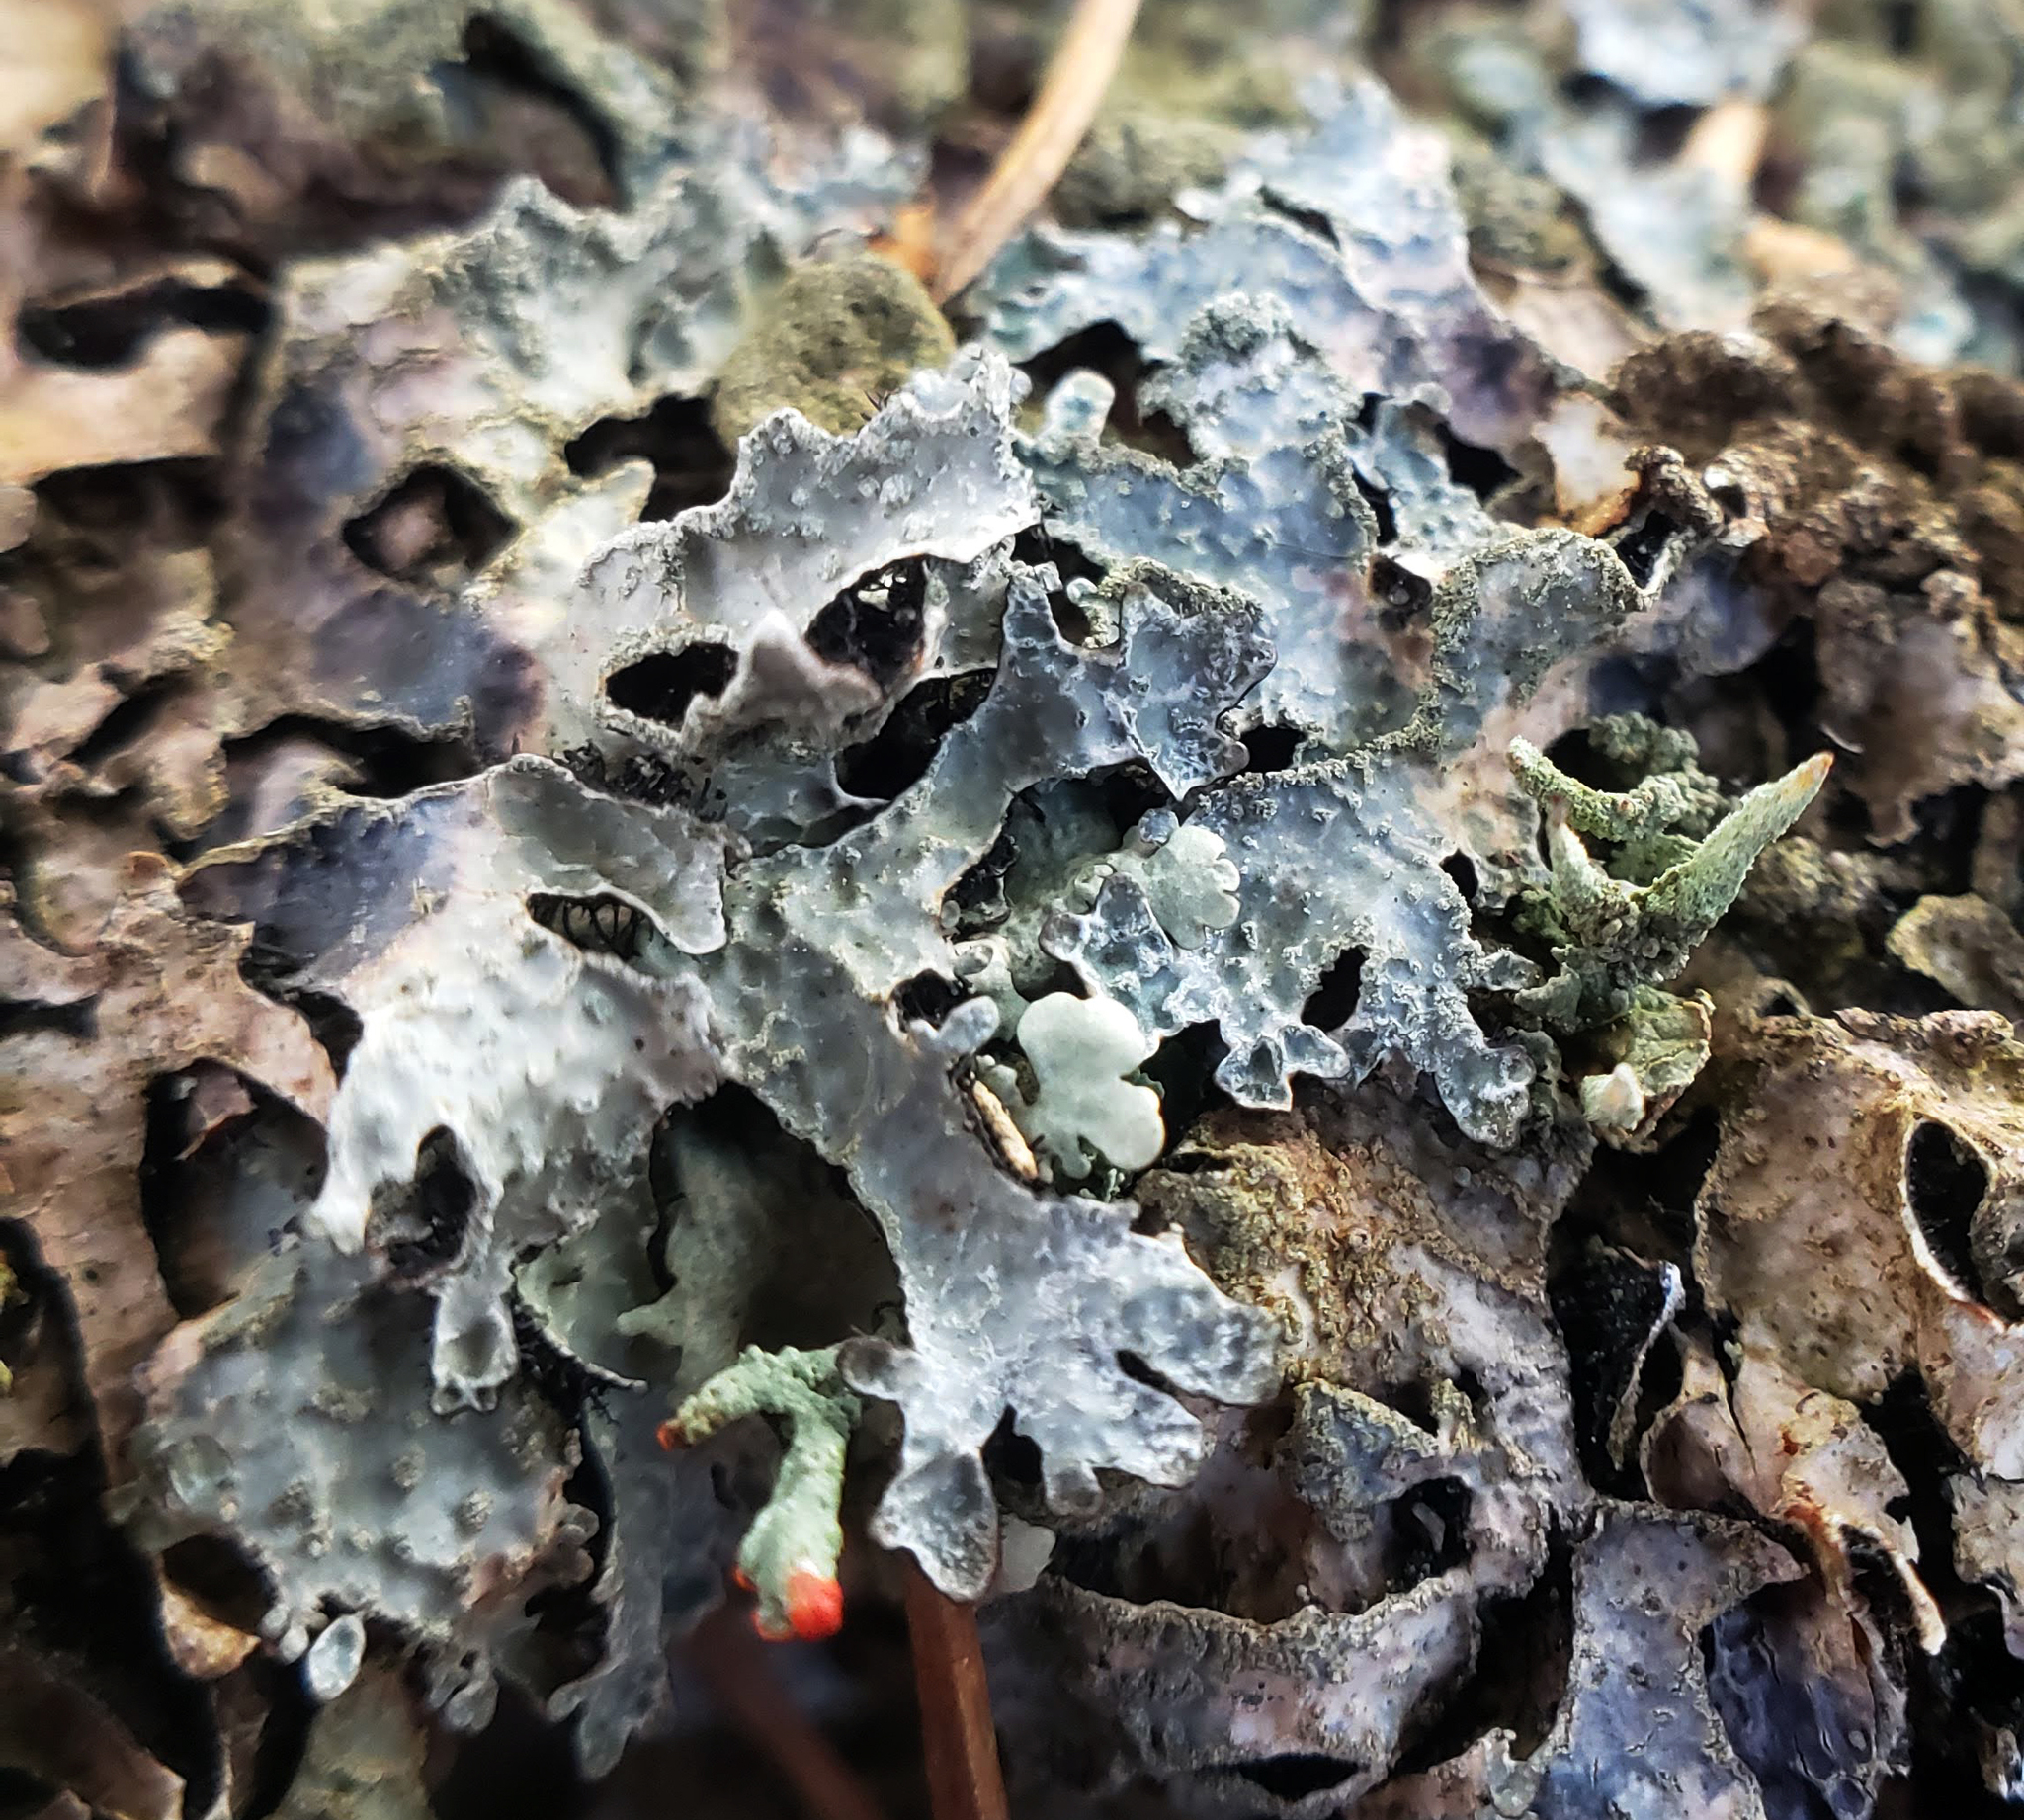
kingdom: Fungi
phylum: Ascomycota
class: Lecanoromycetes
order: Lecanorales
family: Parmeliaceae
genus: Parmelia
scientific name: Parmelia sulcata
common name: Netted shield lichen
